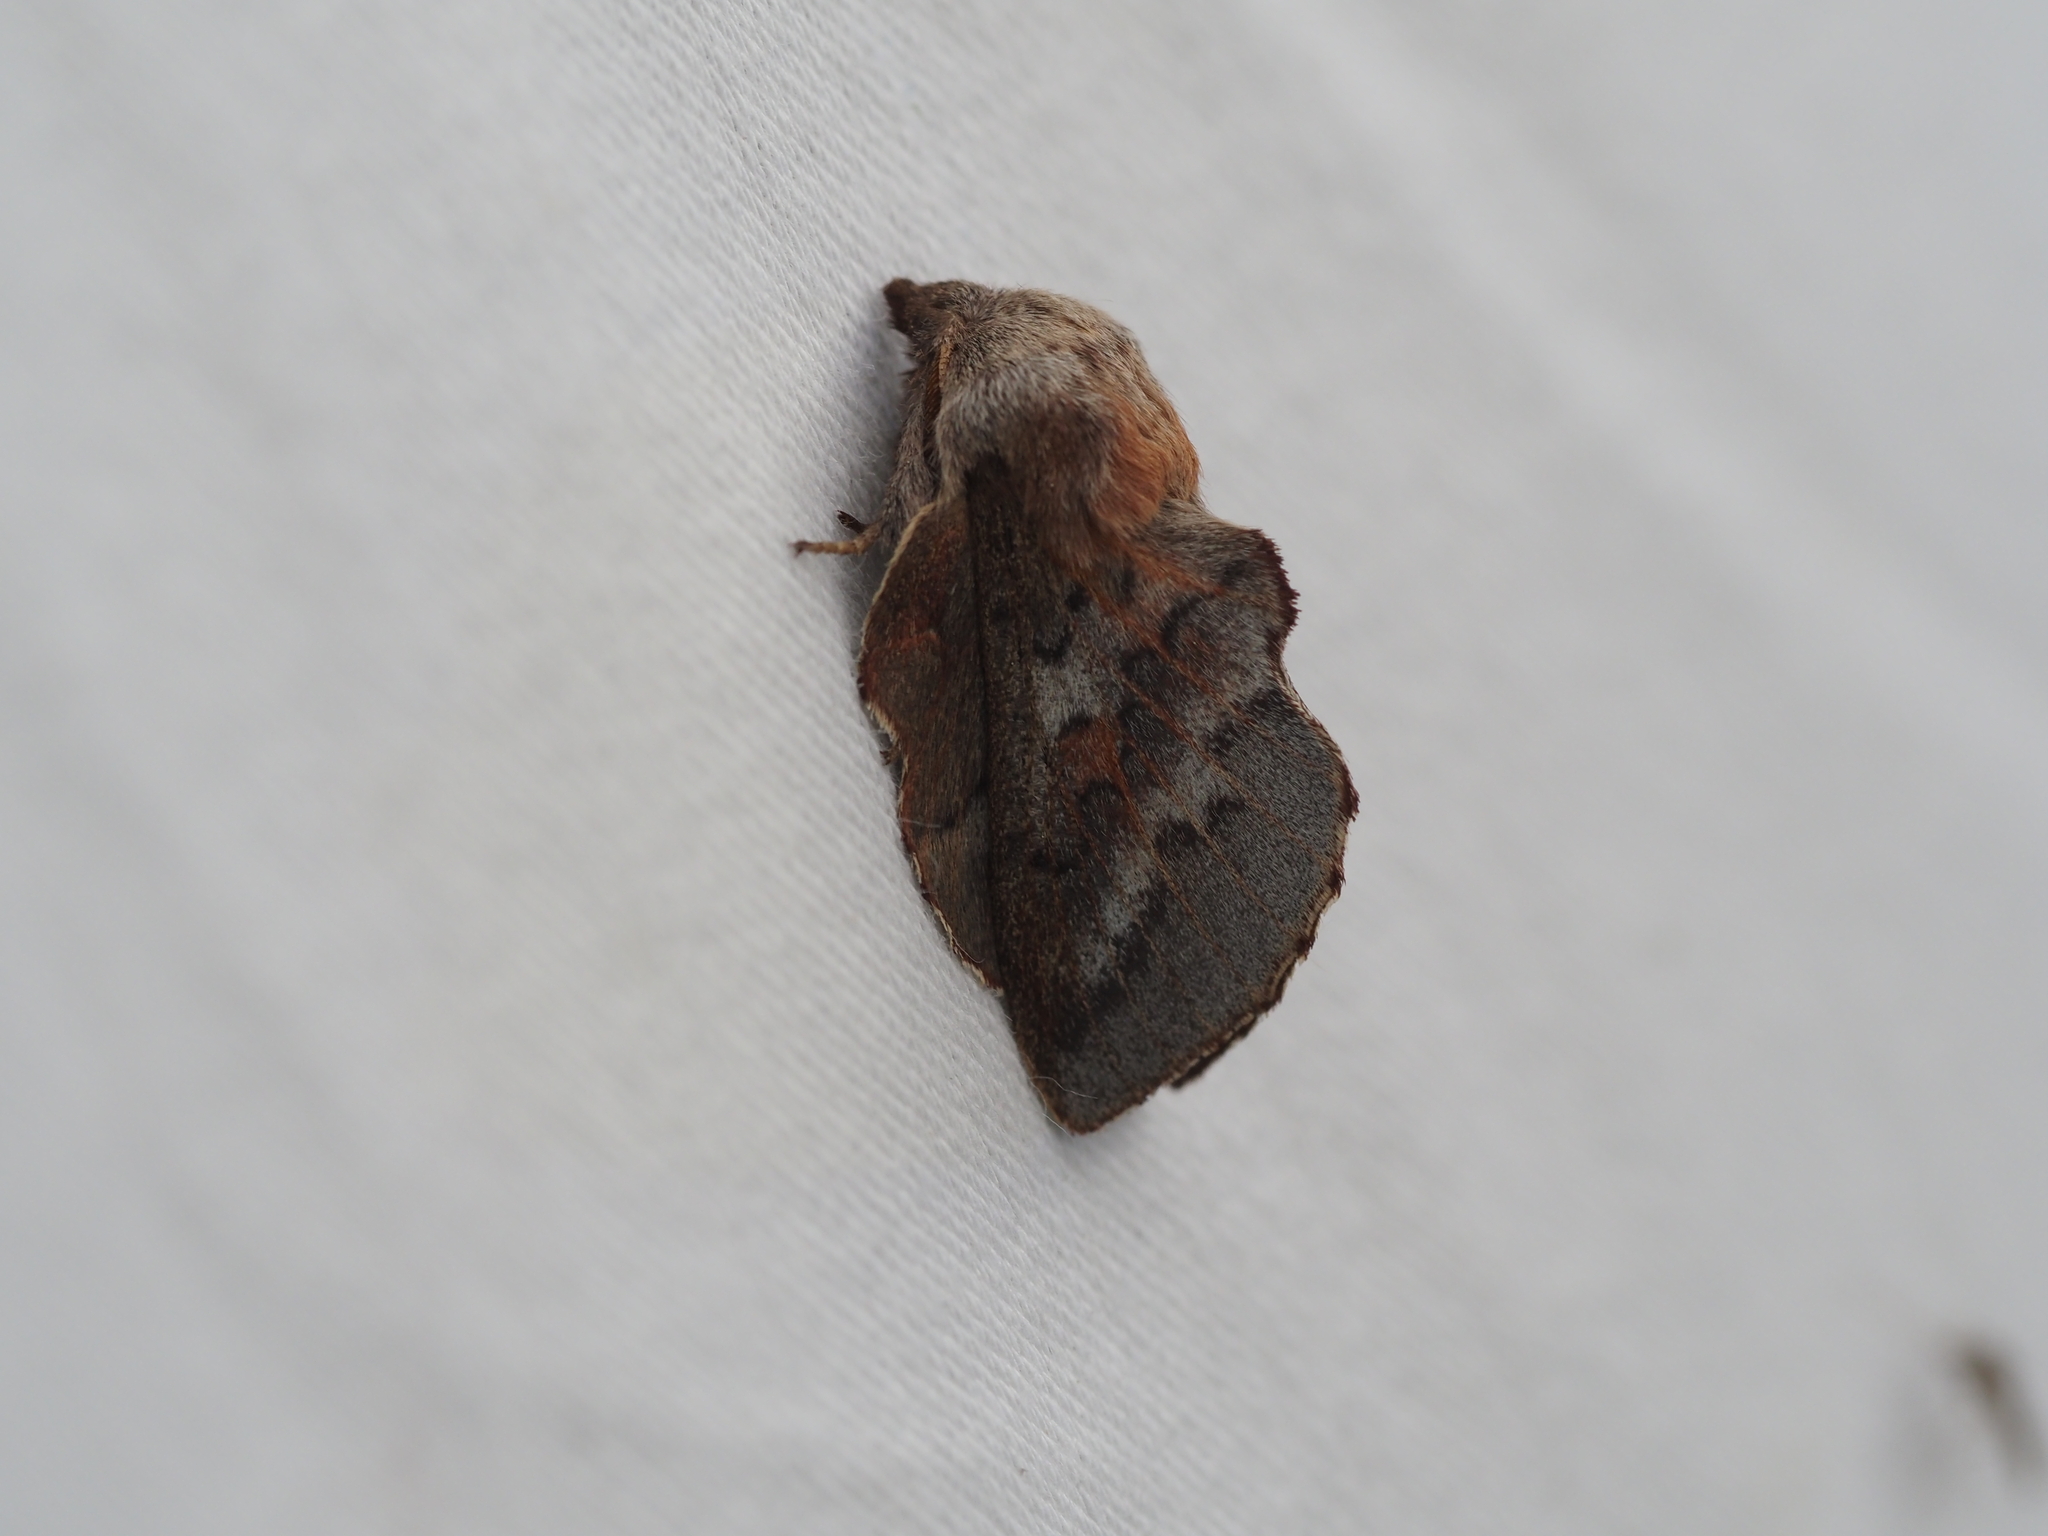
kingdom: Animalia
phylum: Arthropoda
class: Insecta
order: Lepidoptera
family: Lasiocampidae
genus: Phyllodesma
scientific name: Phyllodesma americana
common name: American lappet moth
